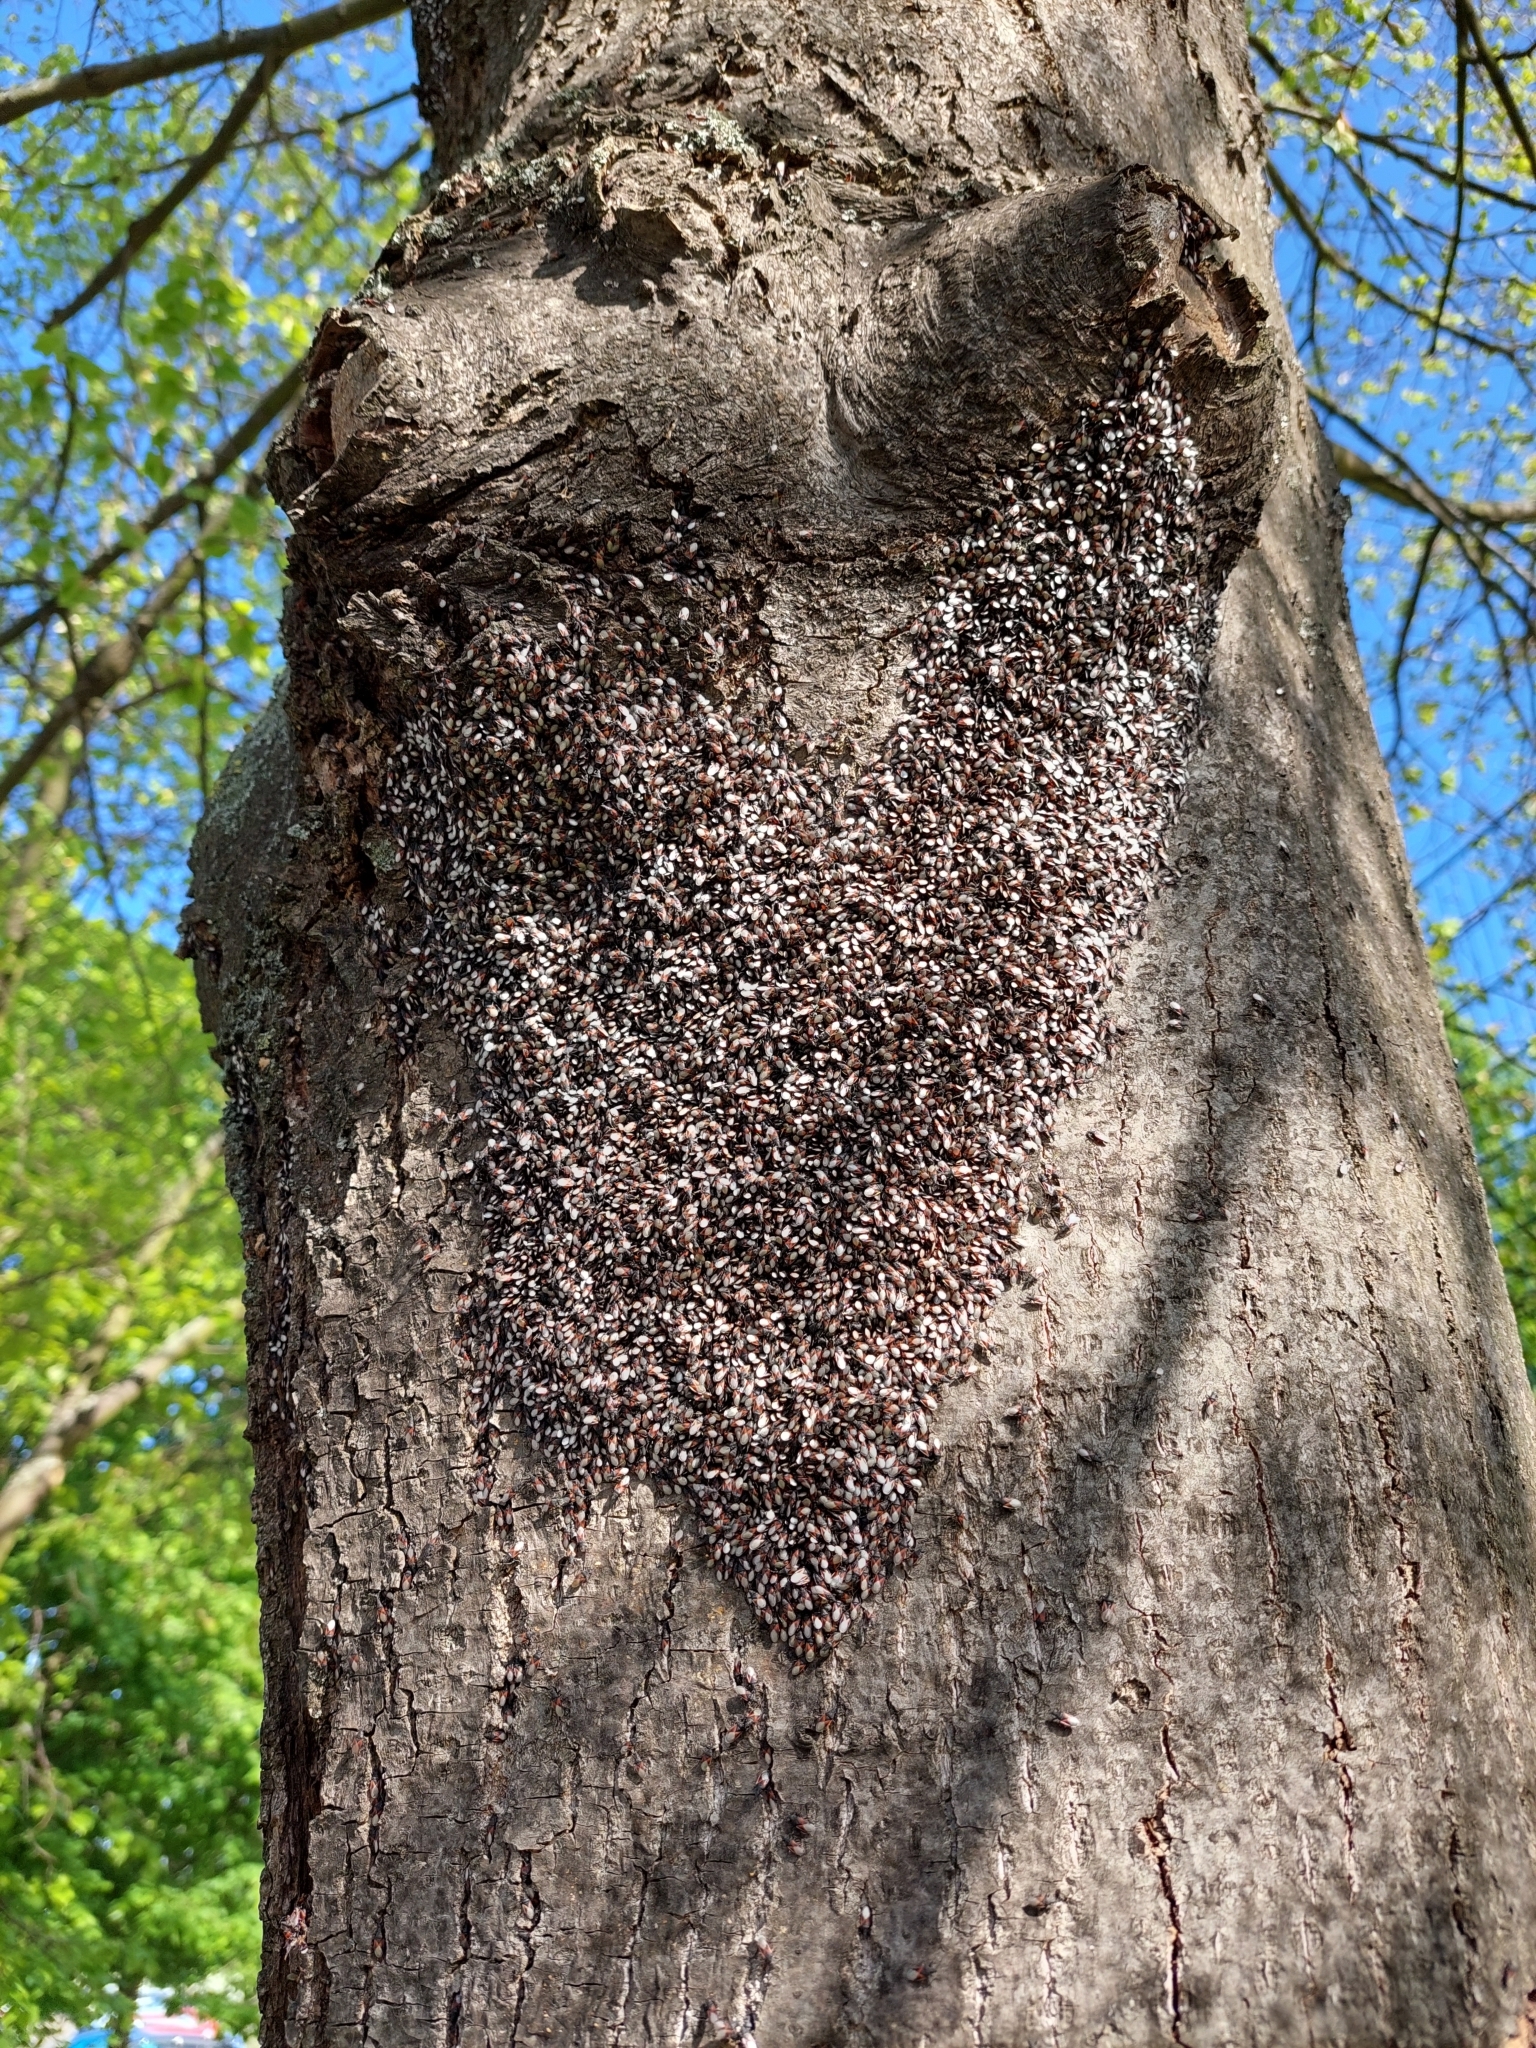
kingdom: Animalia
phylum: Arthropoda
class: Insecta
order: Hemiptera
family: Oxycarenidae
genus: Oxycarenus
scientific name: Oxycarenus lavaterae
